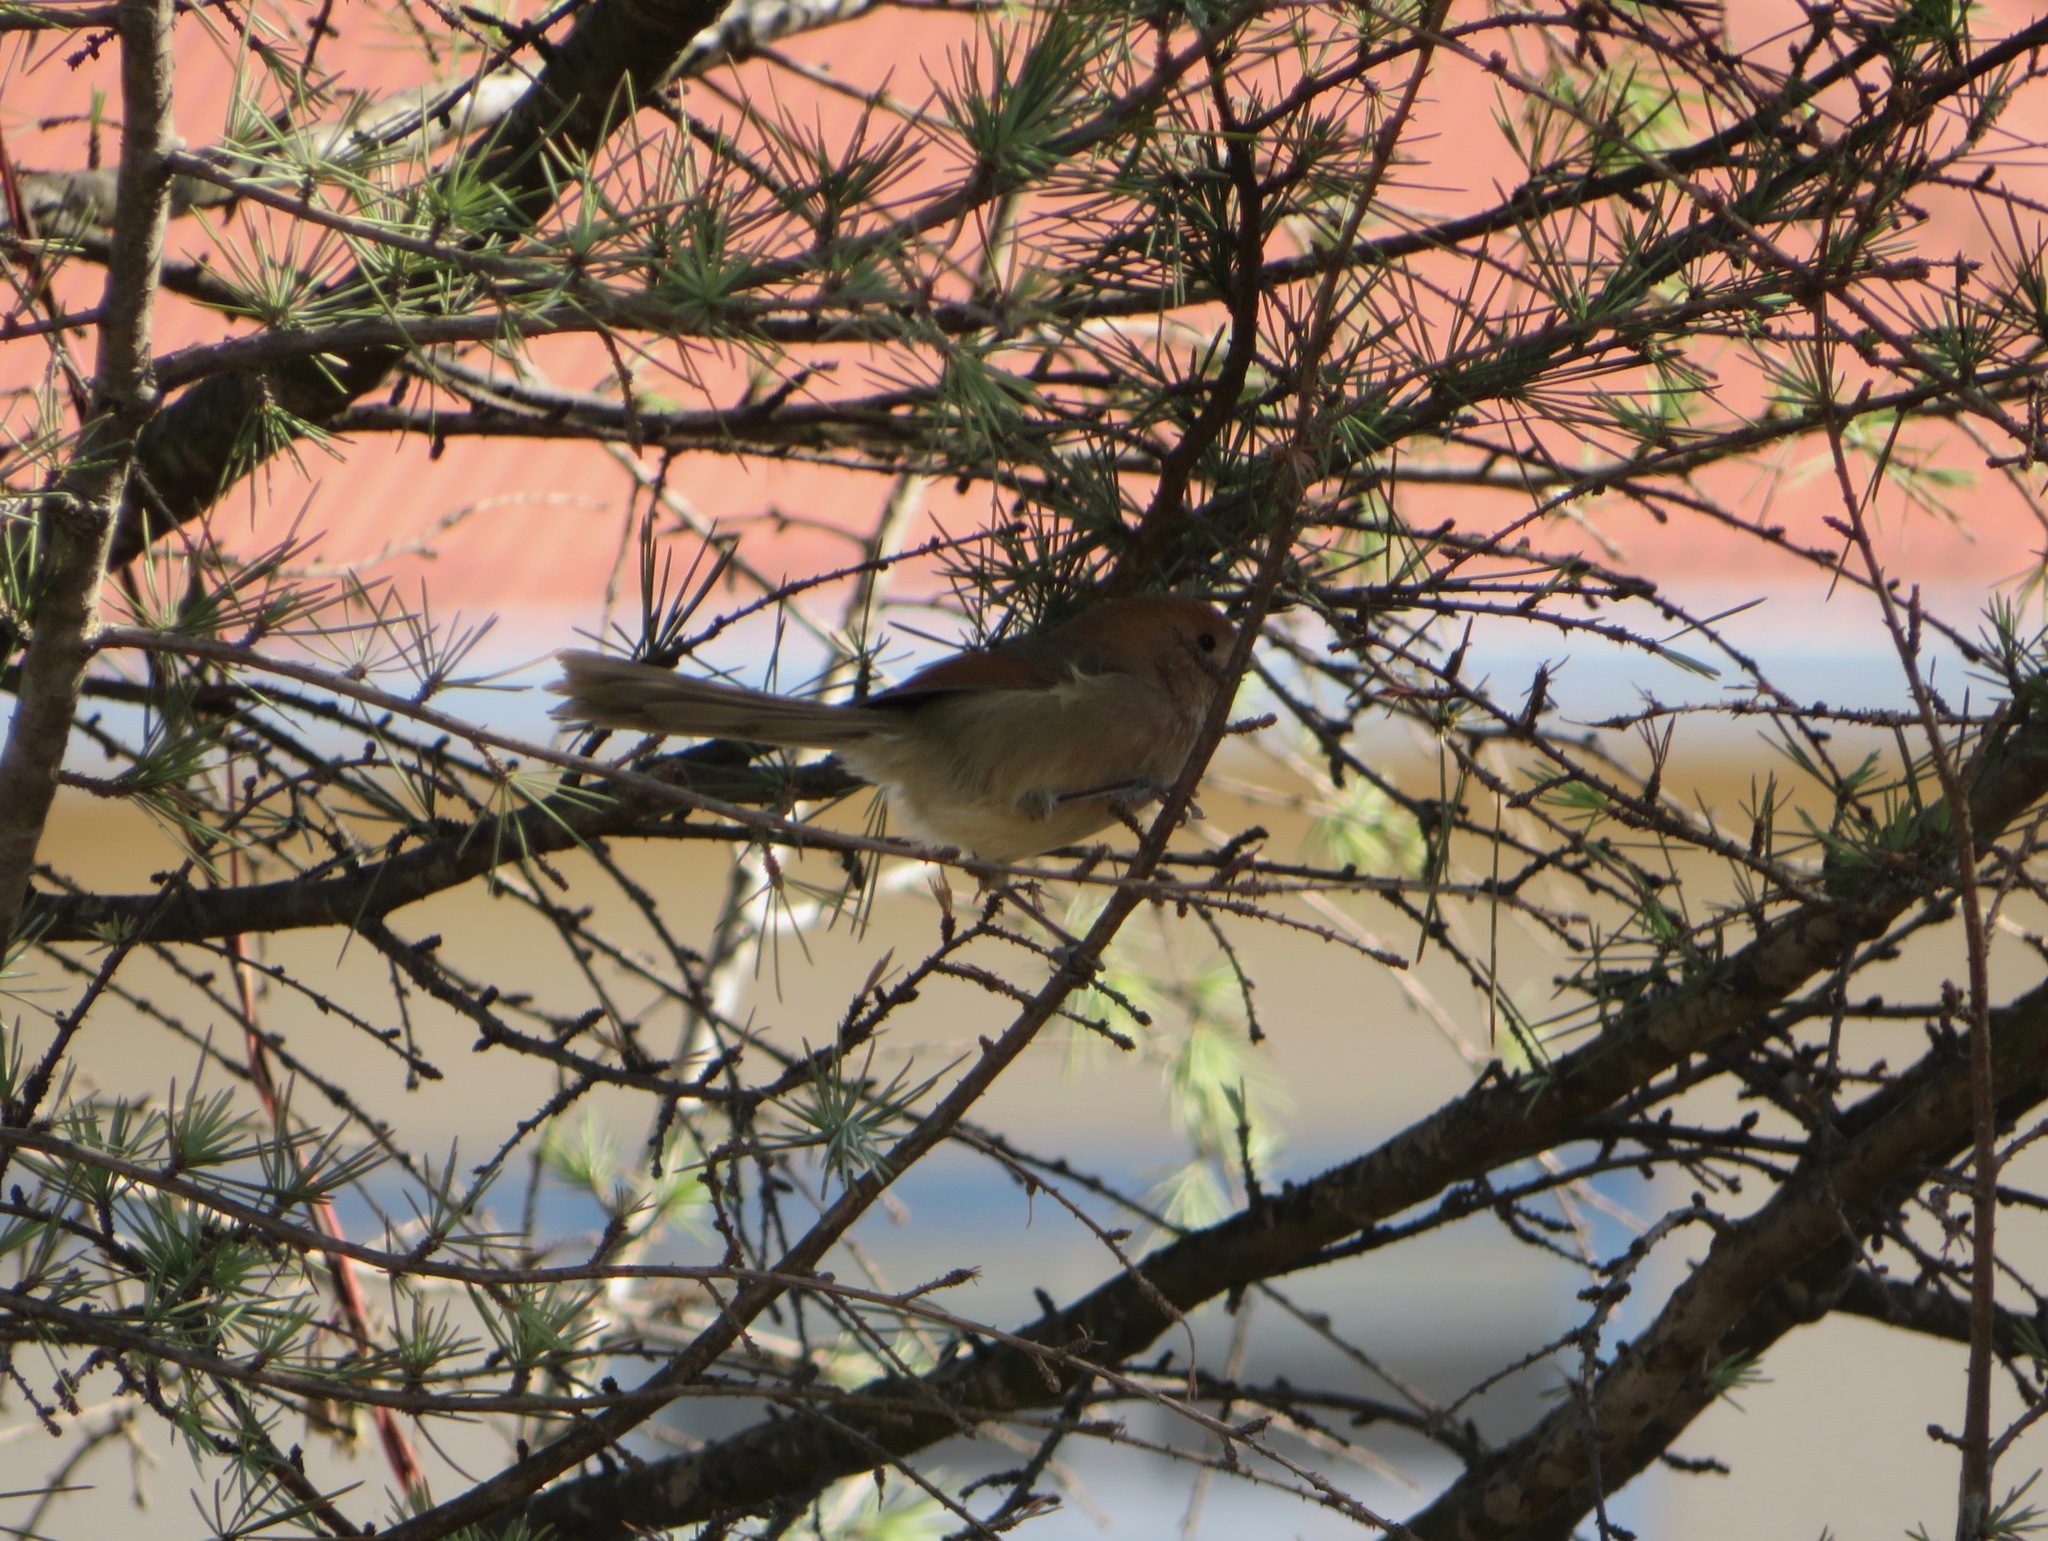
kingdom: Animalia
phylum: Chordata
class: Aves
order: Passeriformes
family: Sylviidae
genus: Sinosuthora
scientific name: Sinosuthora webbiana
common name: Vinous-throated parrotbill
